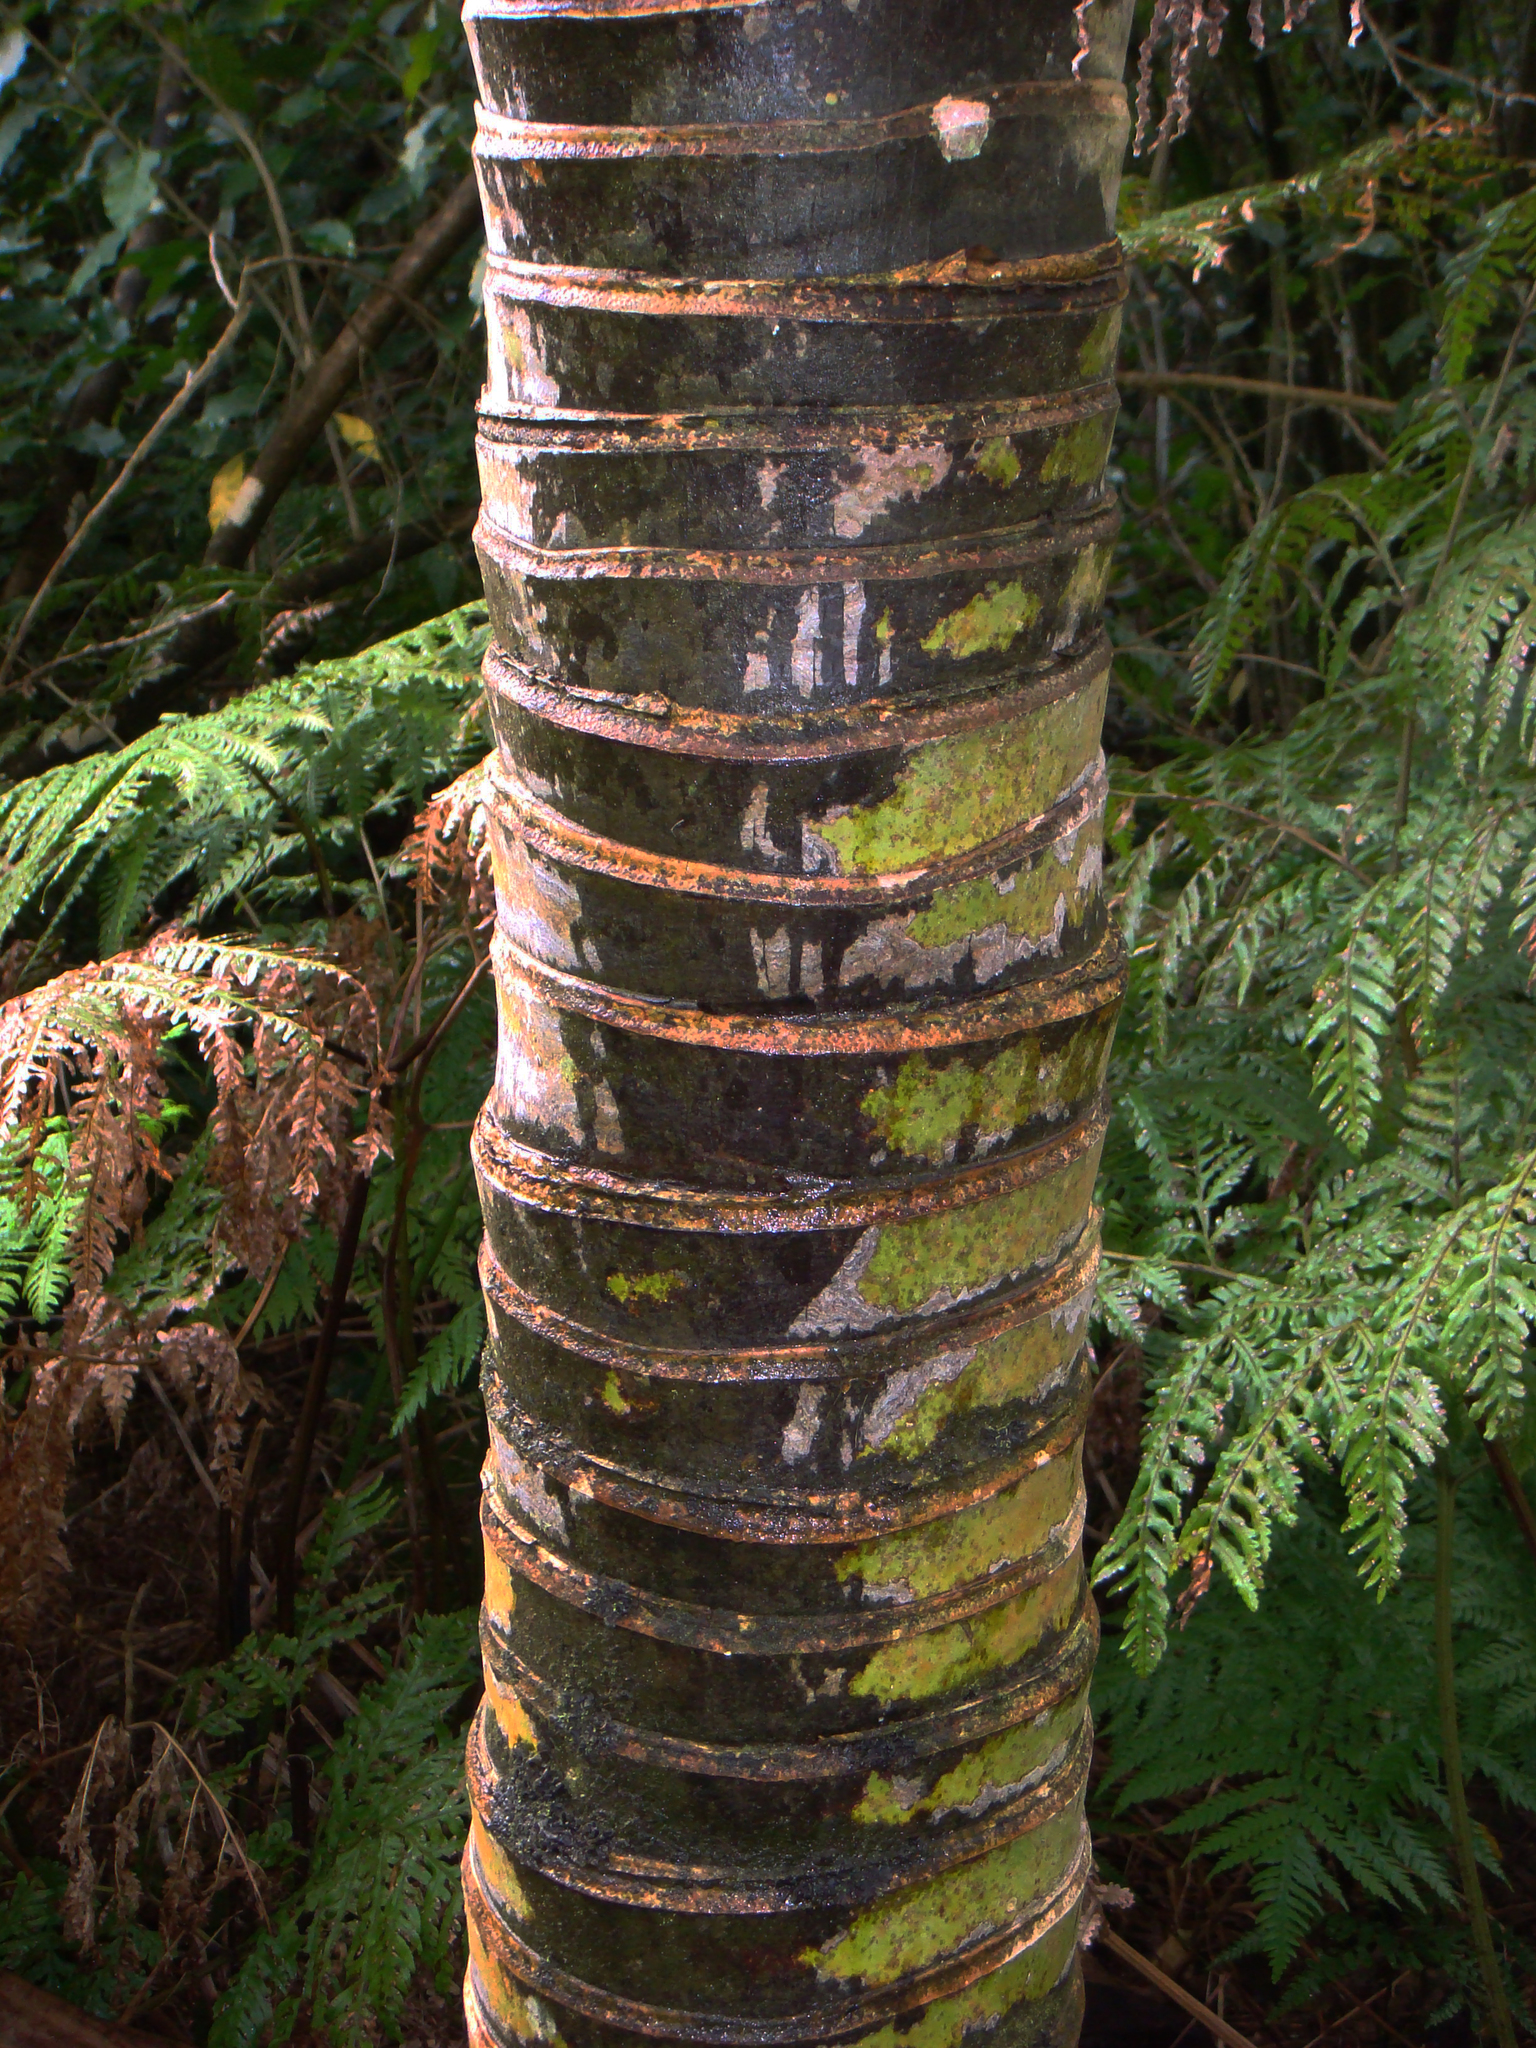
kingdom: Plantae
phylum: Tracheophyta
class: Liliopsida
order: Arecales
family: Arecaceae
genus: Rhopalostylis
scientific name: Rhopalostylis baueri
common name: Norfolk island palm
